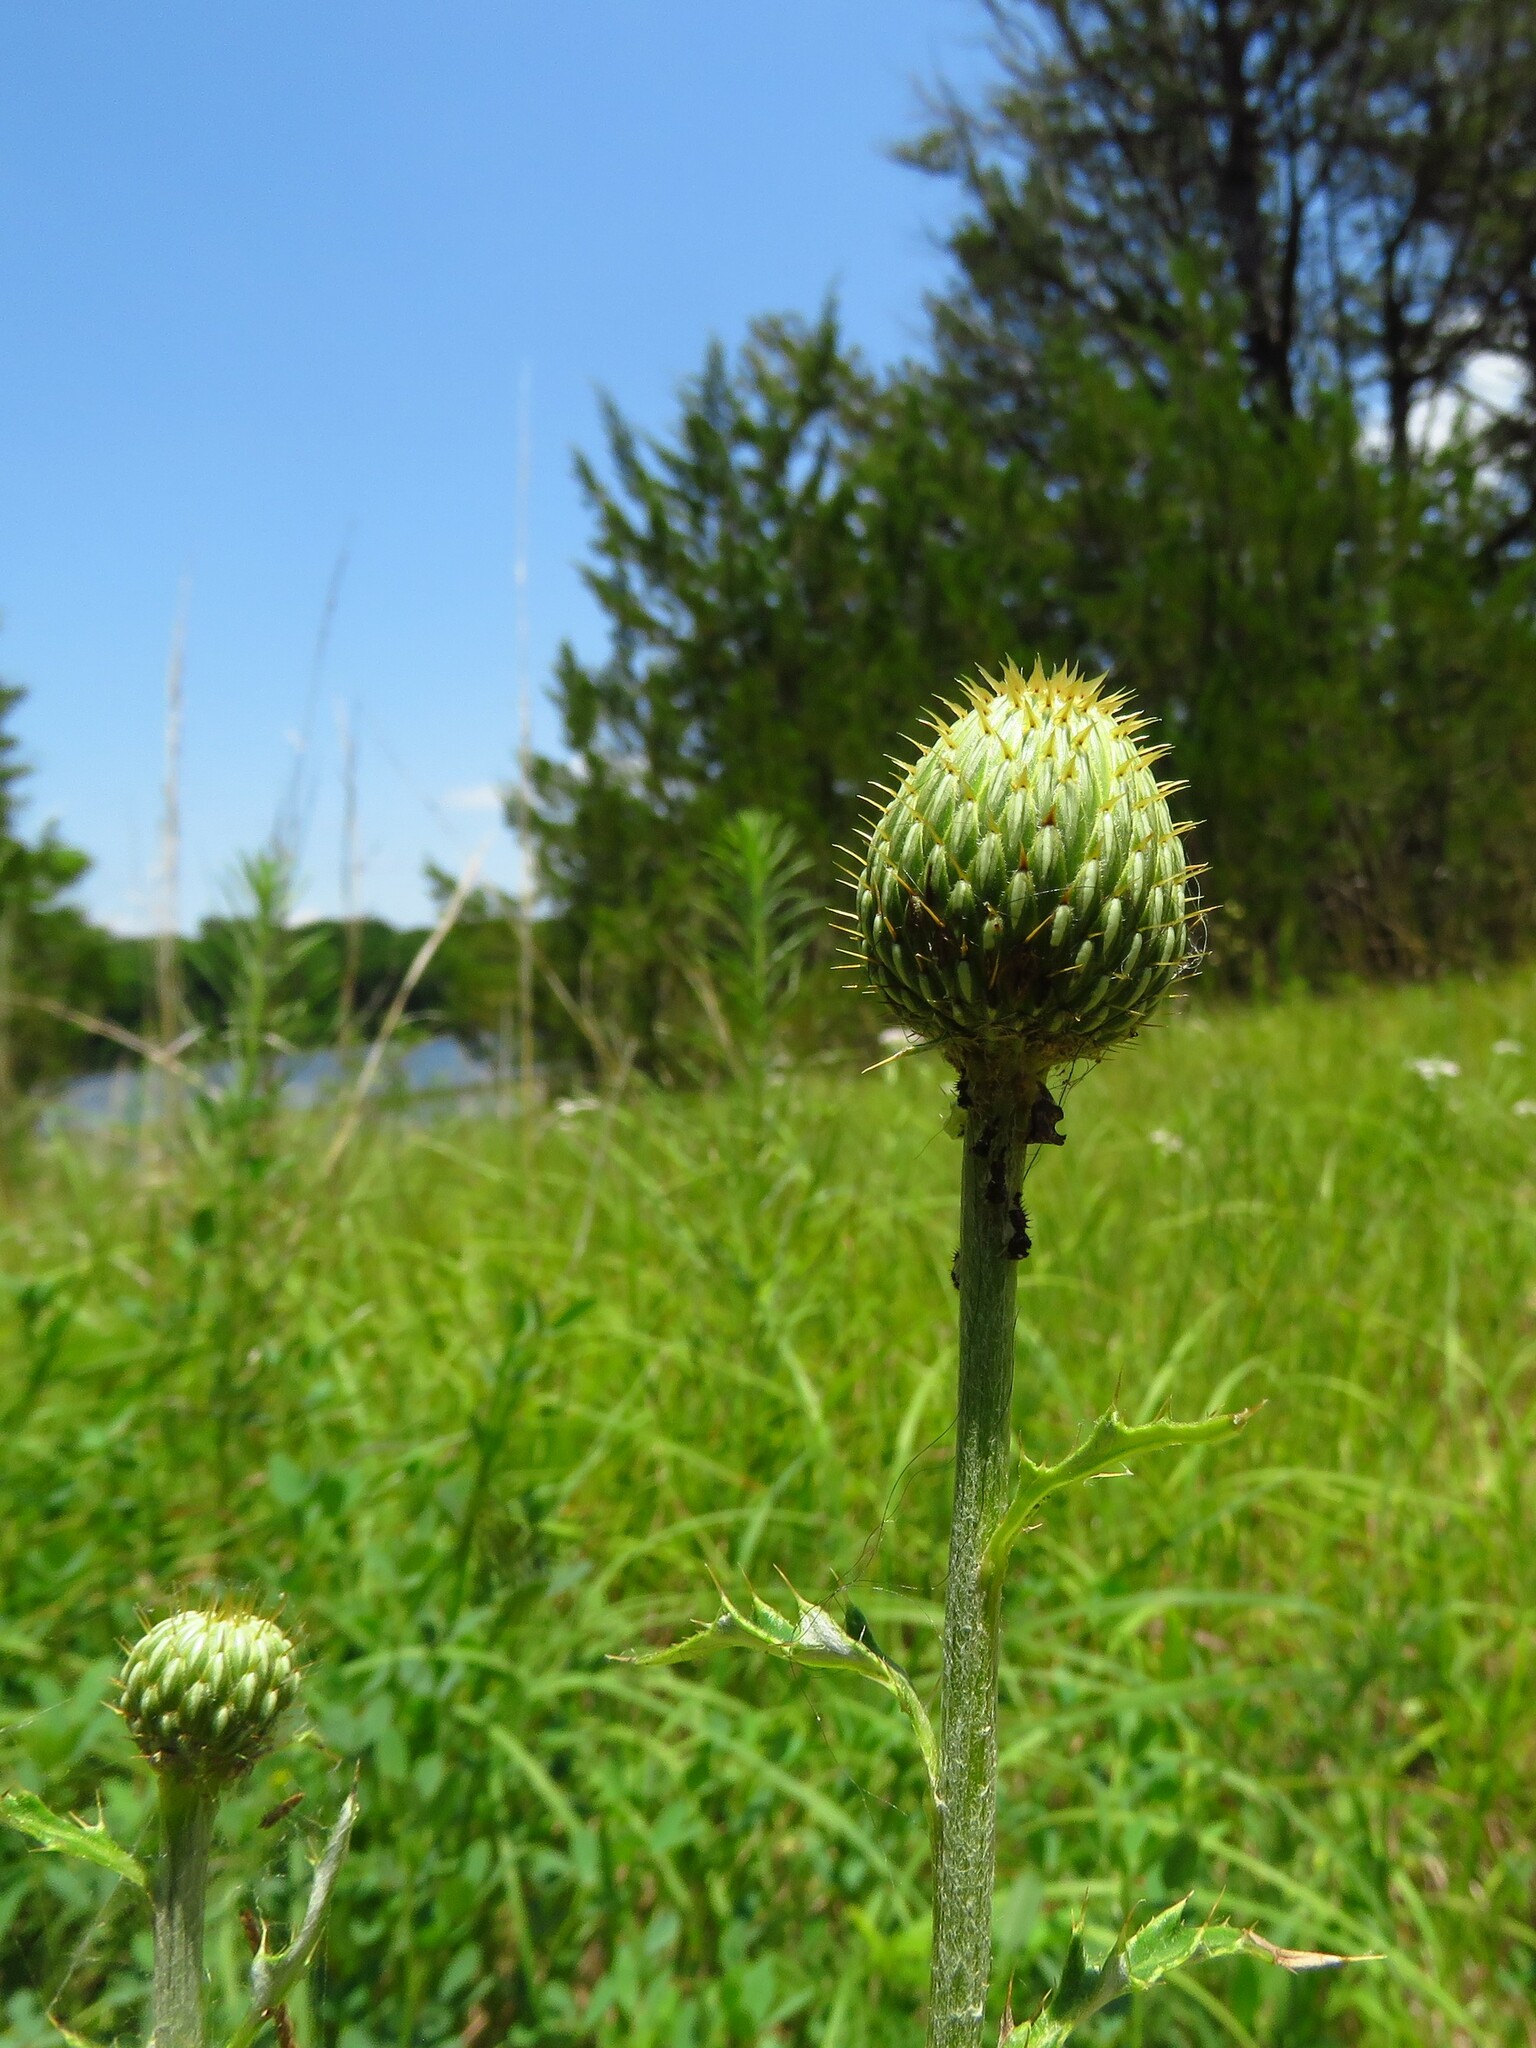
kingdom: Plantae
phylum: Tracheophyta
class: Magnoliopsida
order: Asterales
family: Asteraceae
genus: Cirsium
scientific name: Cirsium engelmannii
